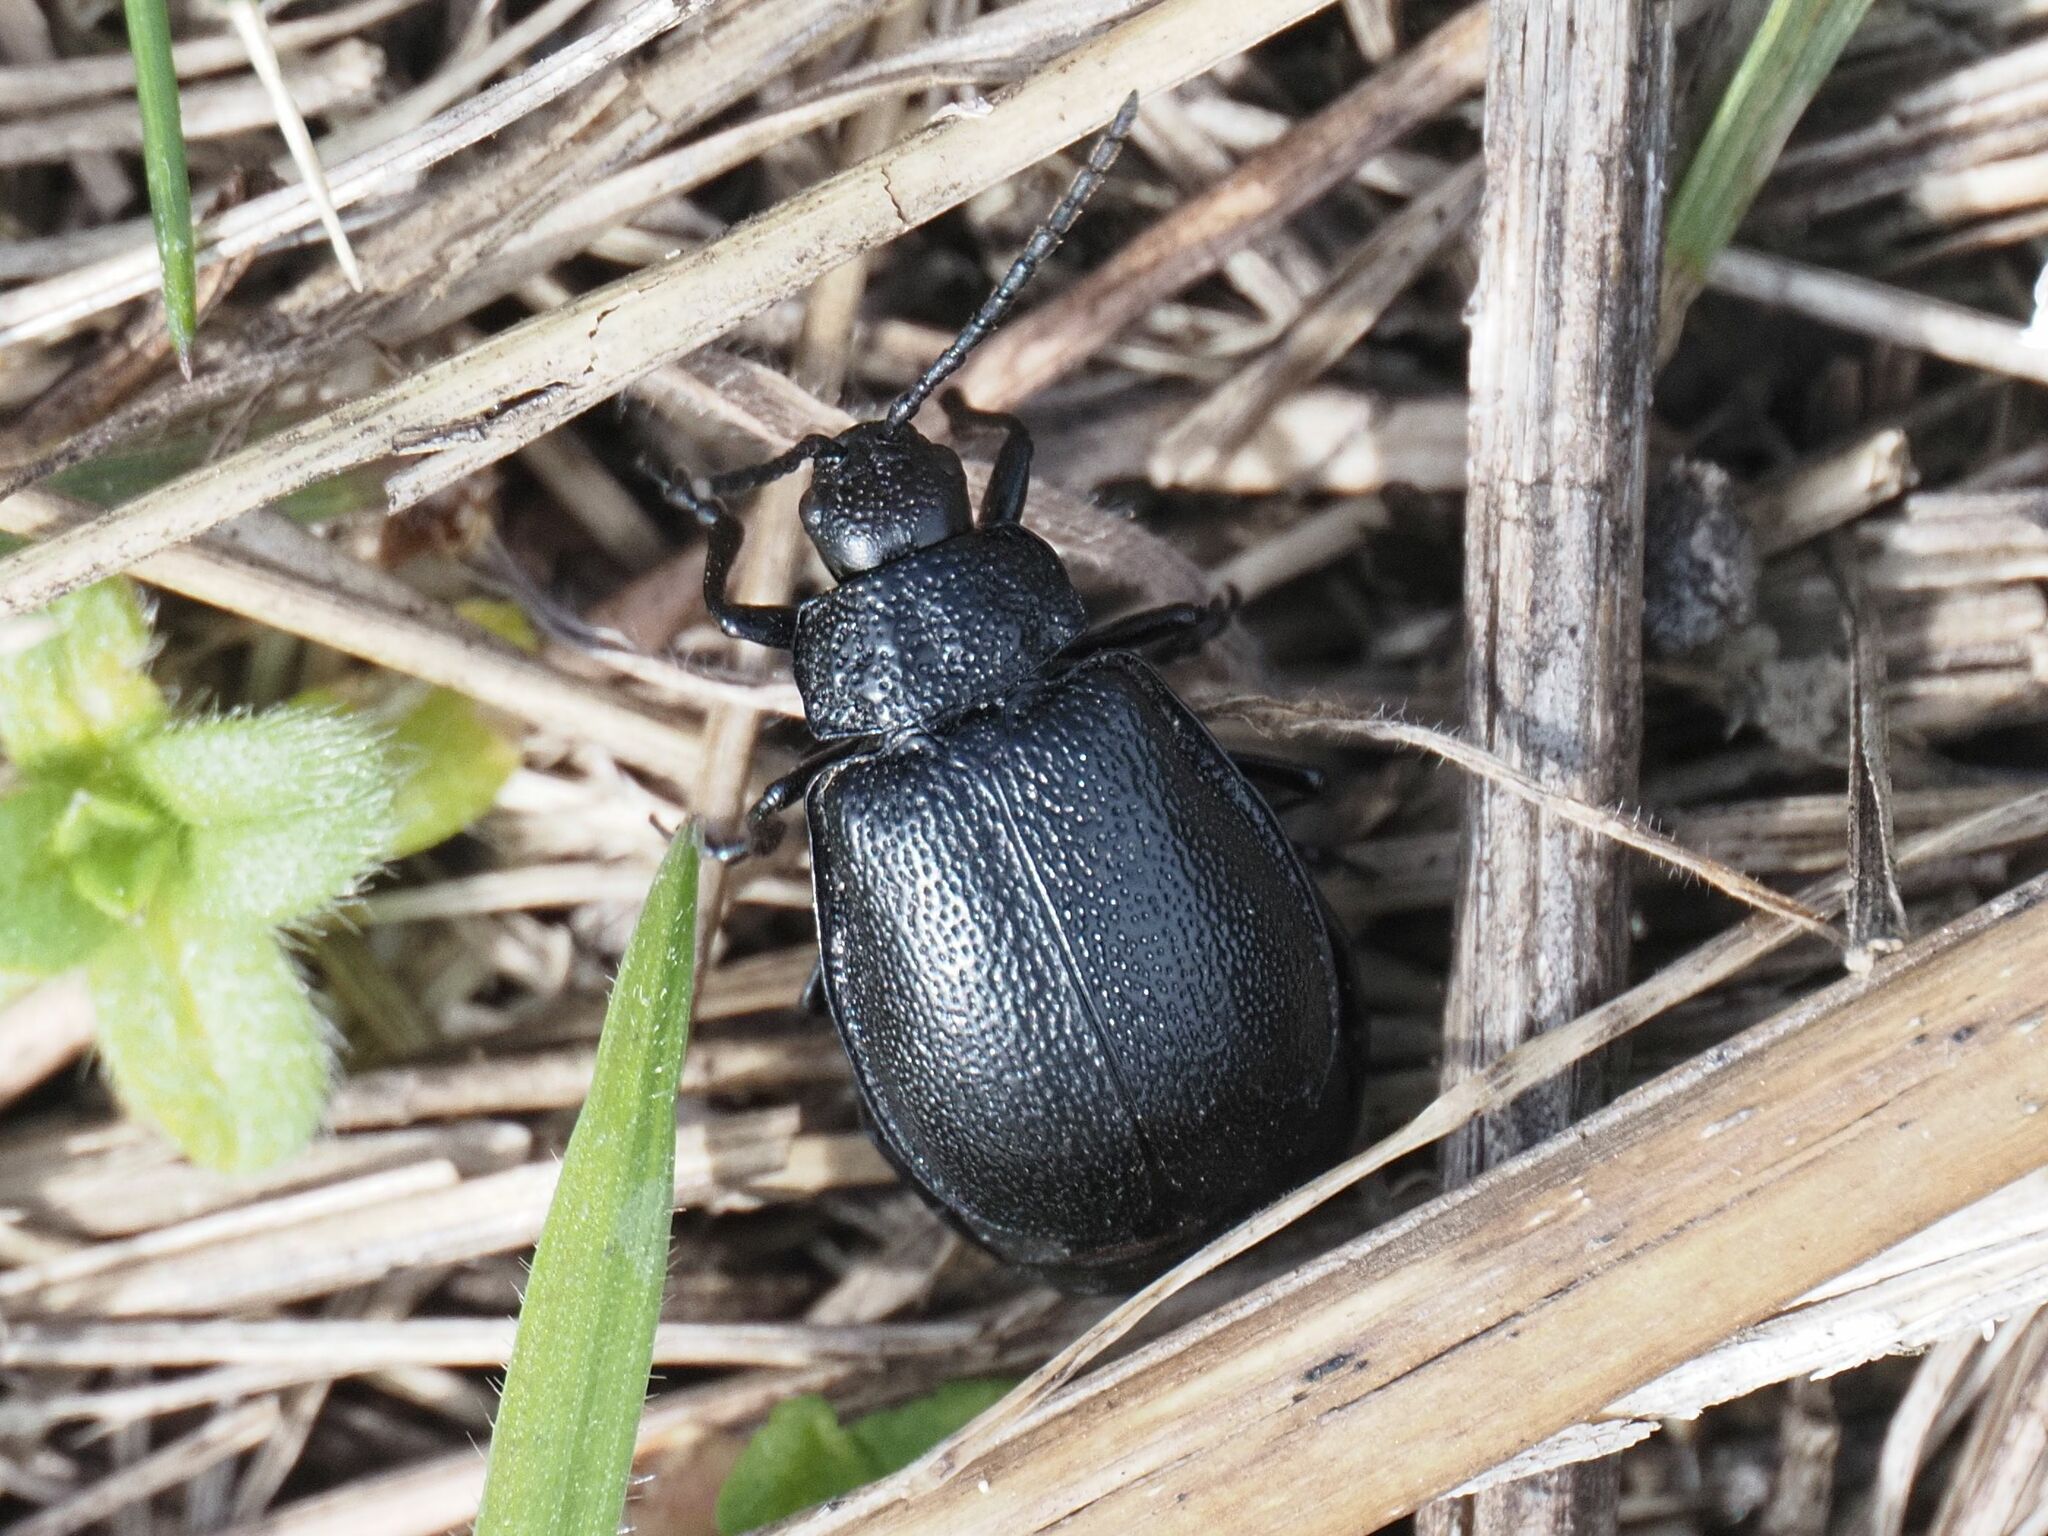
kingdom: Animalia
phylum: Arthropoda
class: Insecta
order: Coleoptera
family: Chrysomelidae
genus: Galeruca
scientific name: Galeruca tanaceti
